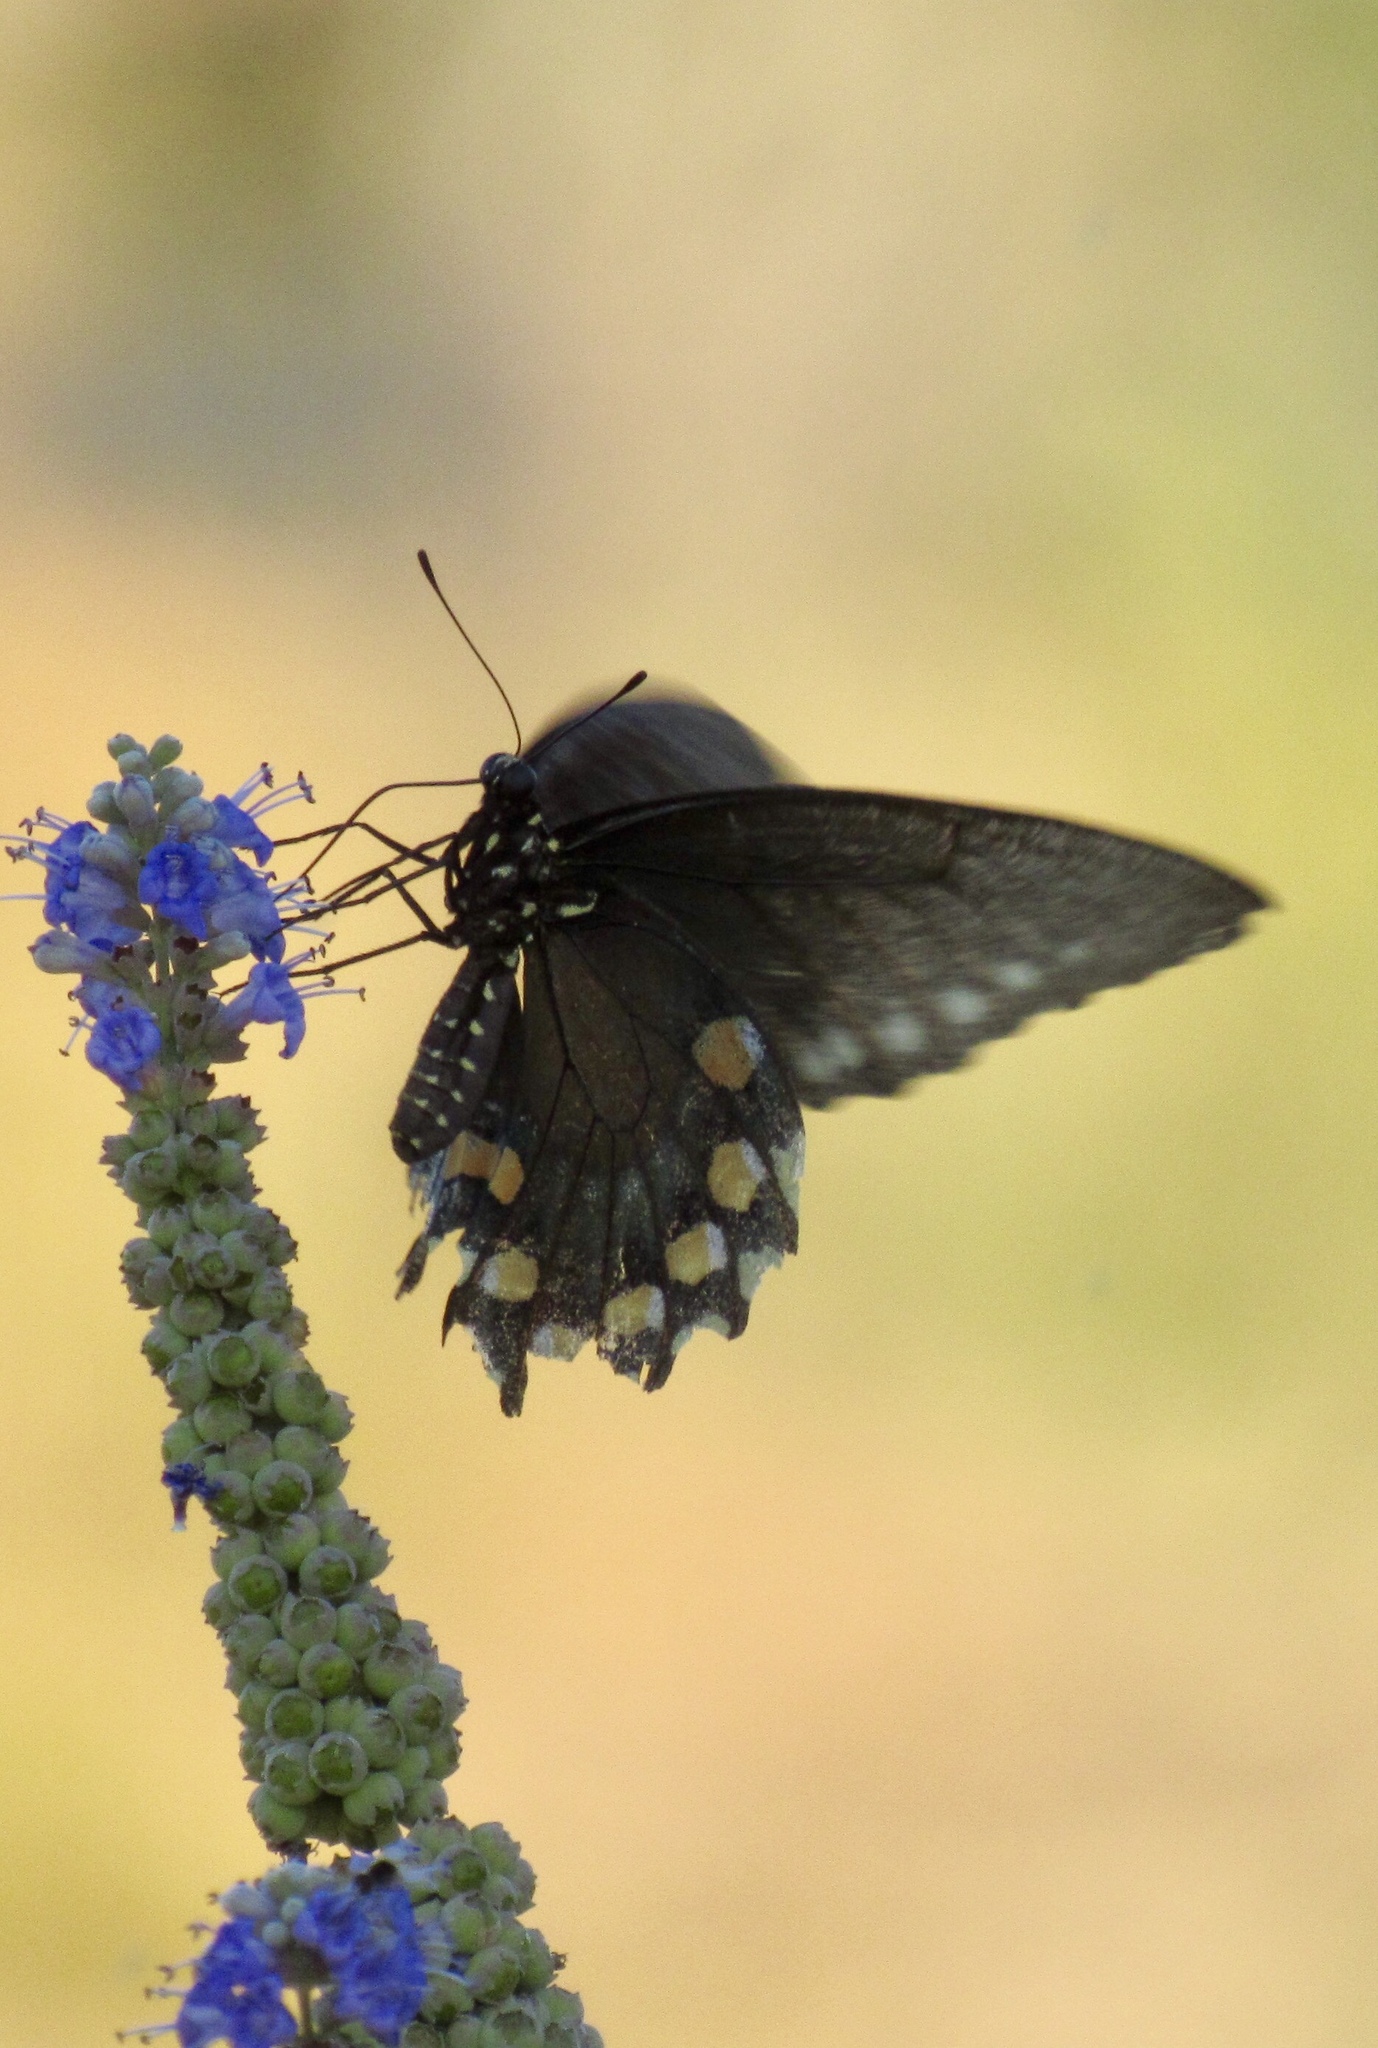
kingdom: Animalia
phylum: Arthropoda
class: Insecta
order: Lepidoptera
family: Papilionidae
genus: Battus
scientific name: Battus philenor
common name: Pipevine swallowtail
